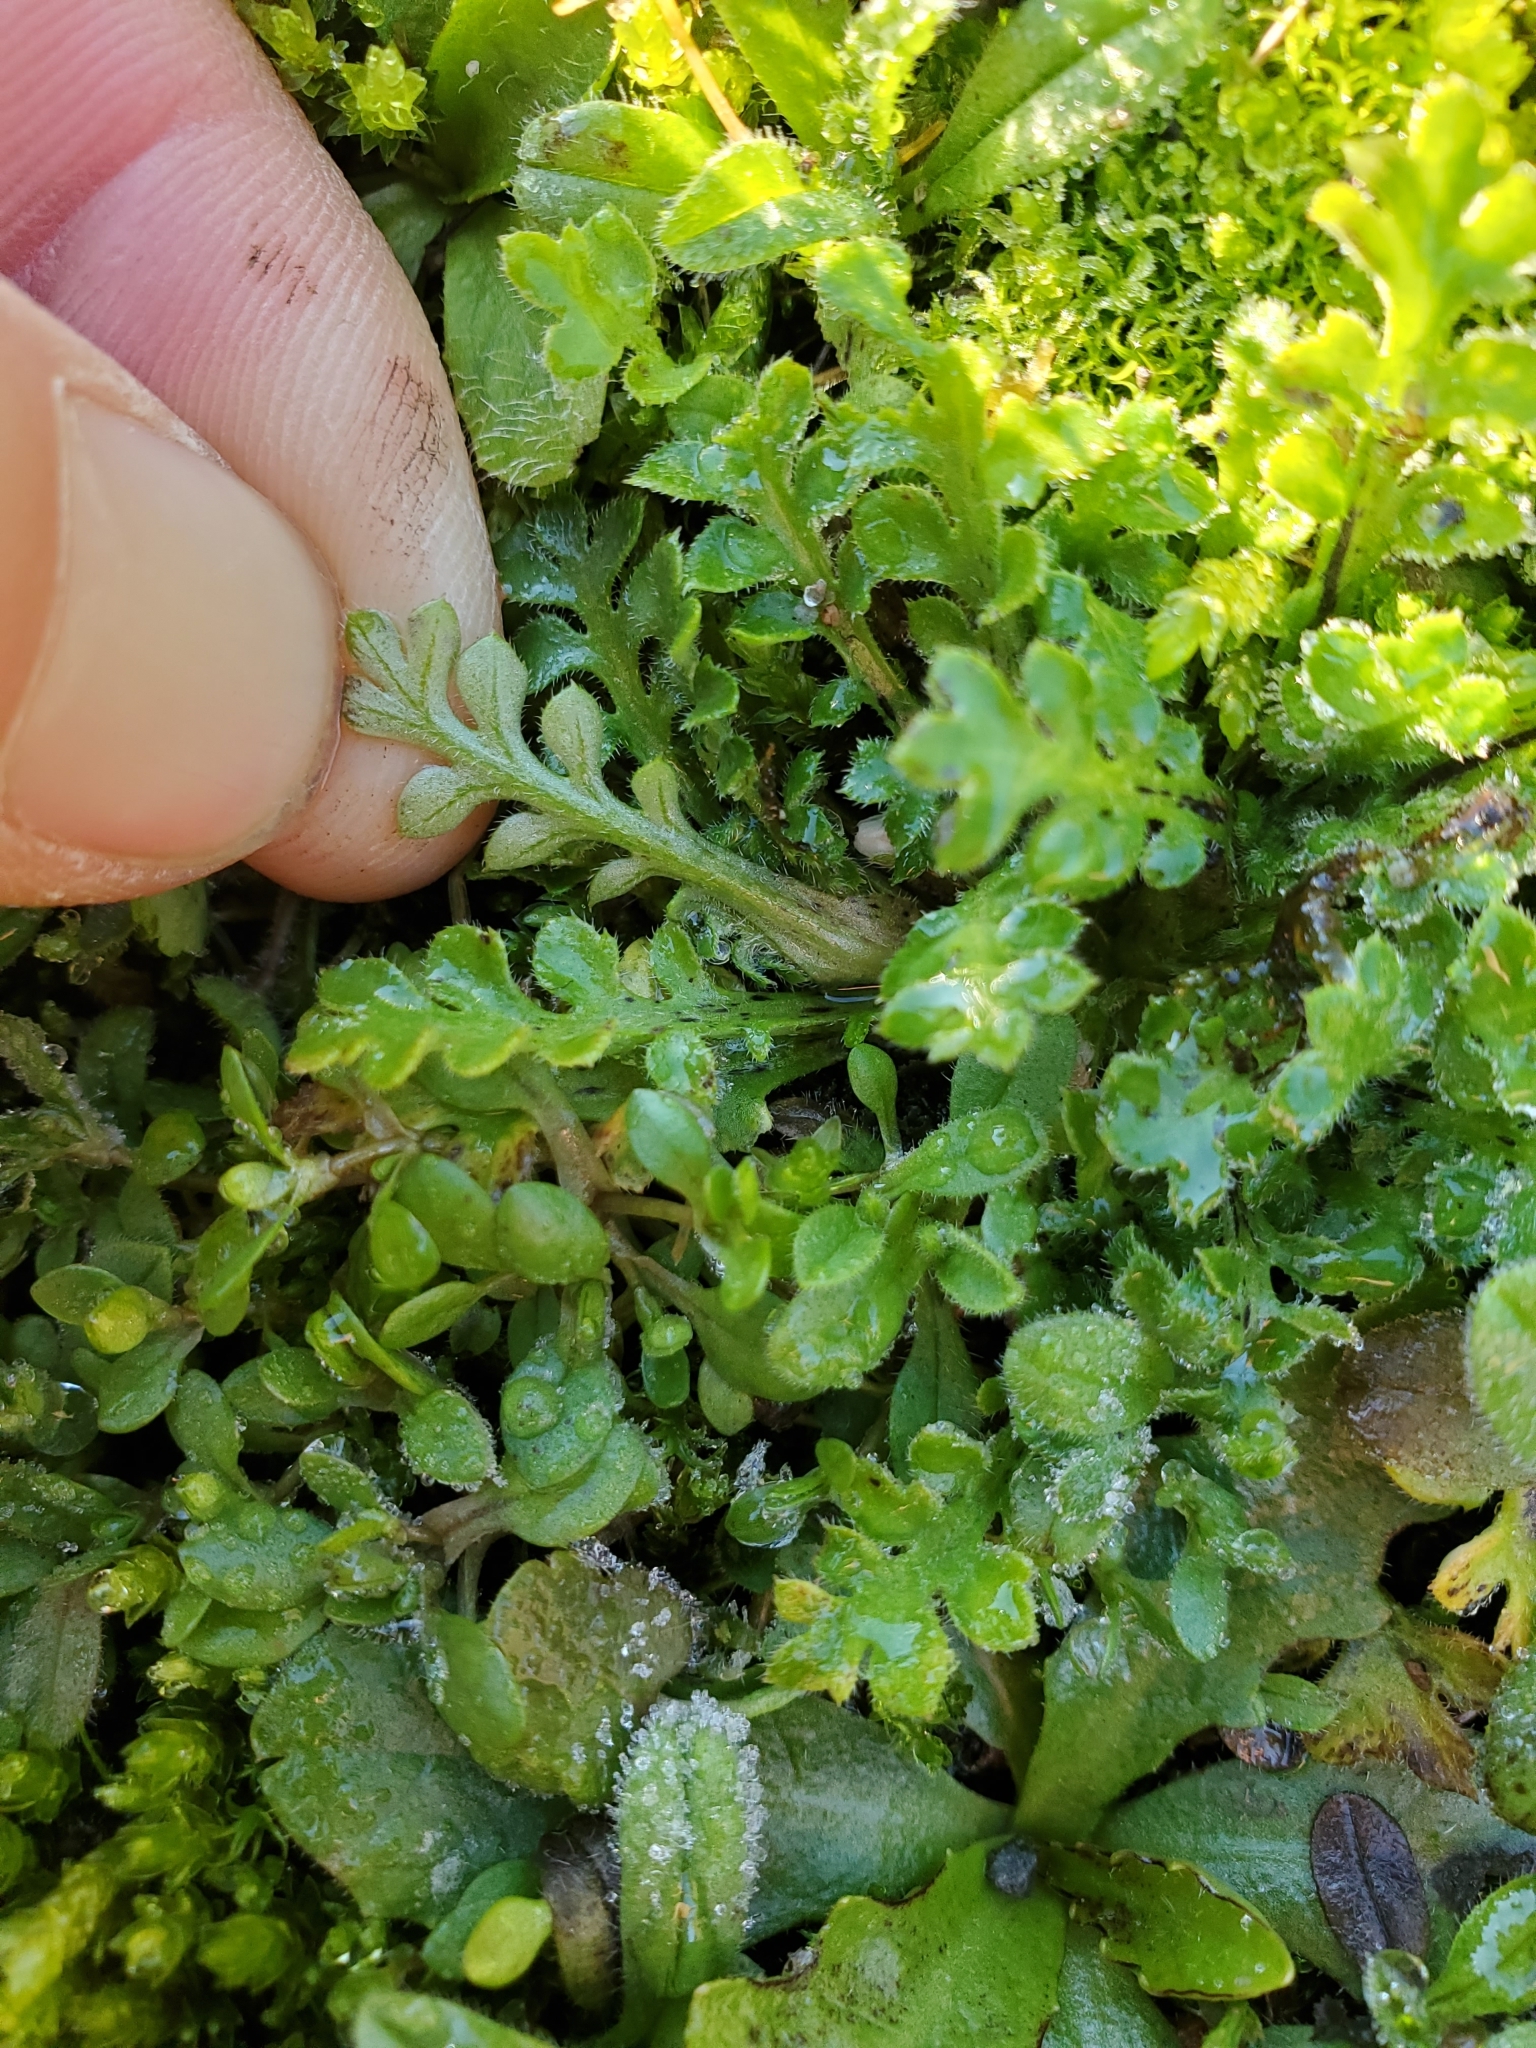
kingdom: Plantae
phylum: Tracheophyta
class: Magnoliopsida
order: Boraginales
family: Hydrophyllaceae
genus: Nemophila
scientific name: Nemophila pedunculata
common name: Little-foot baby-blue-eyes
